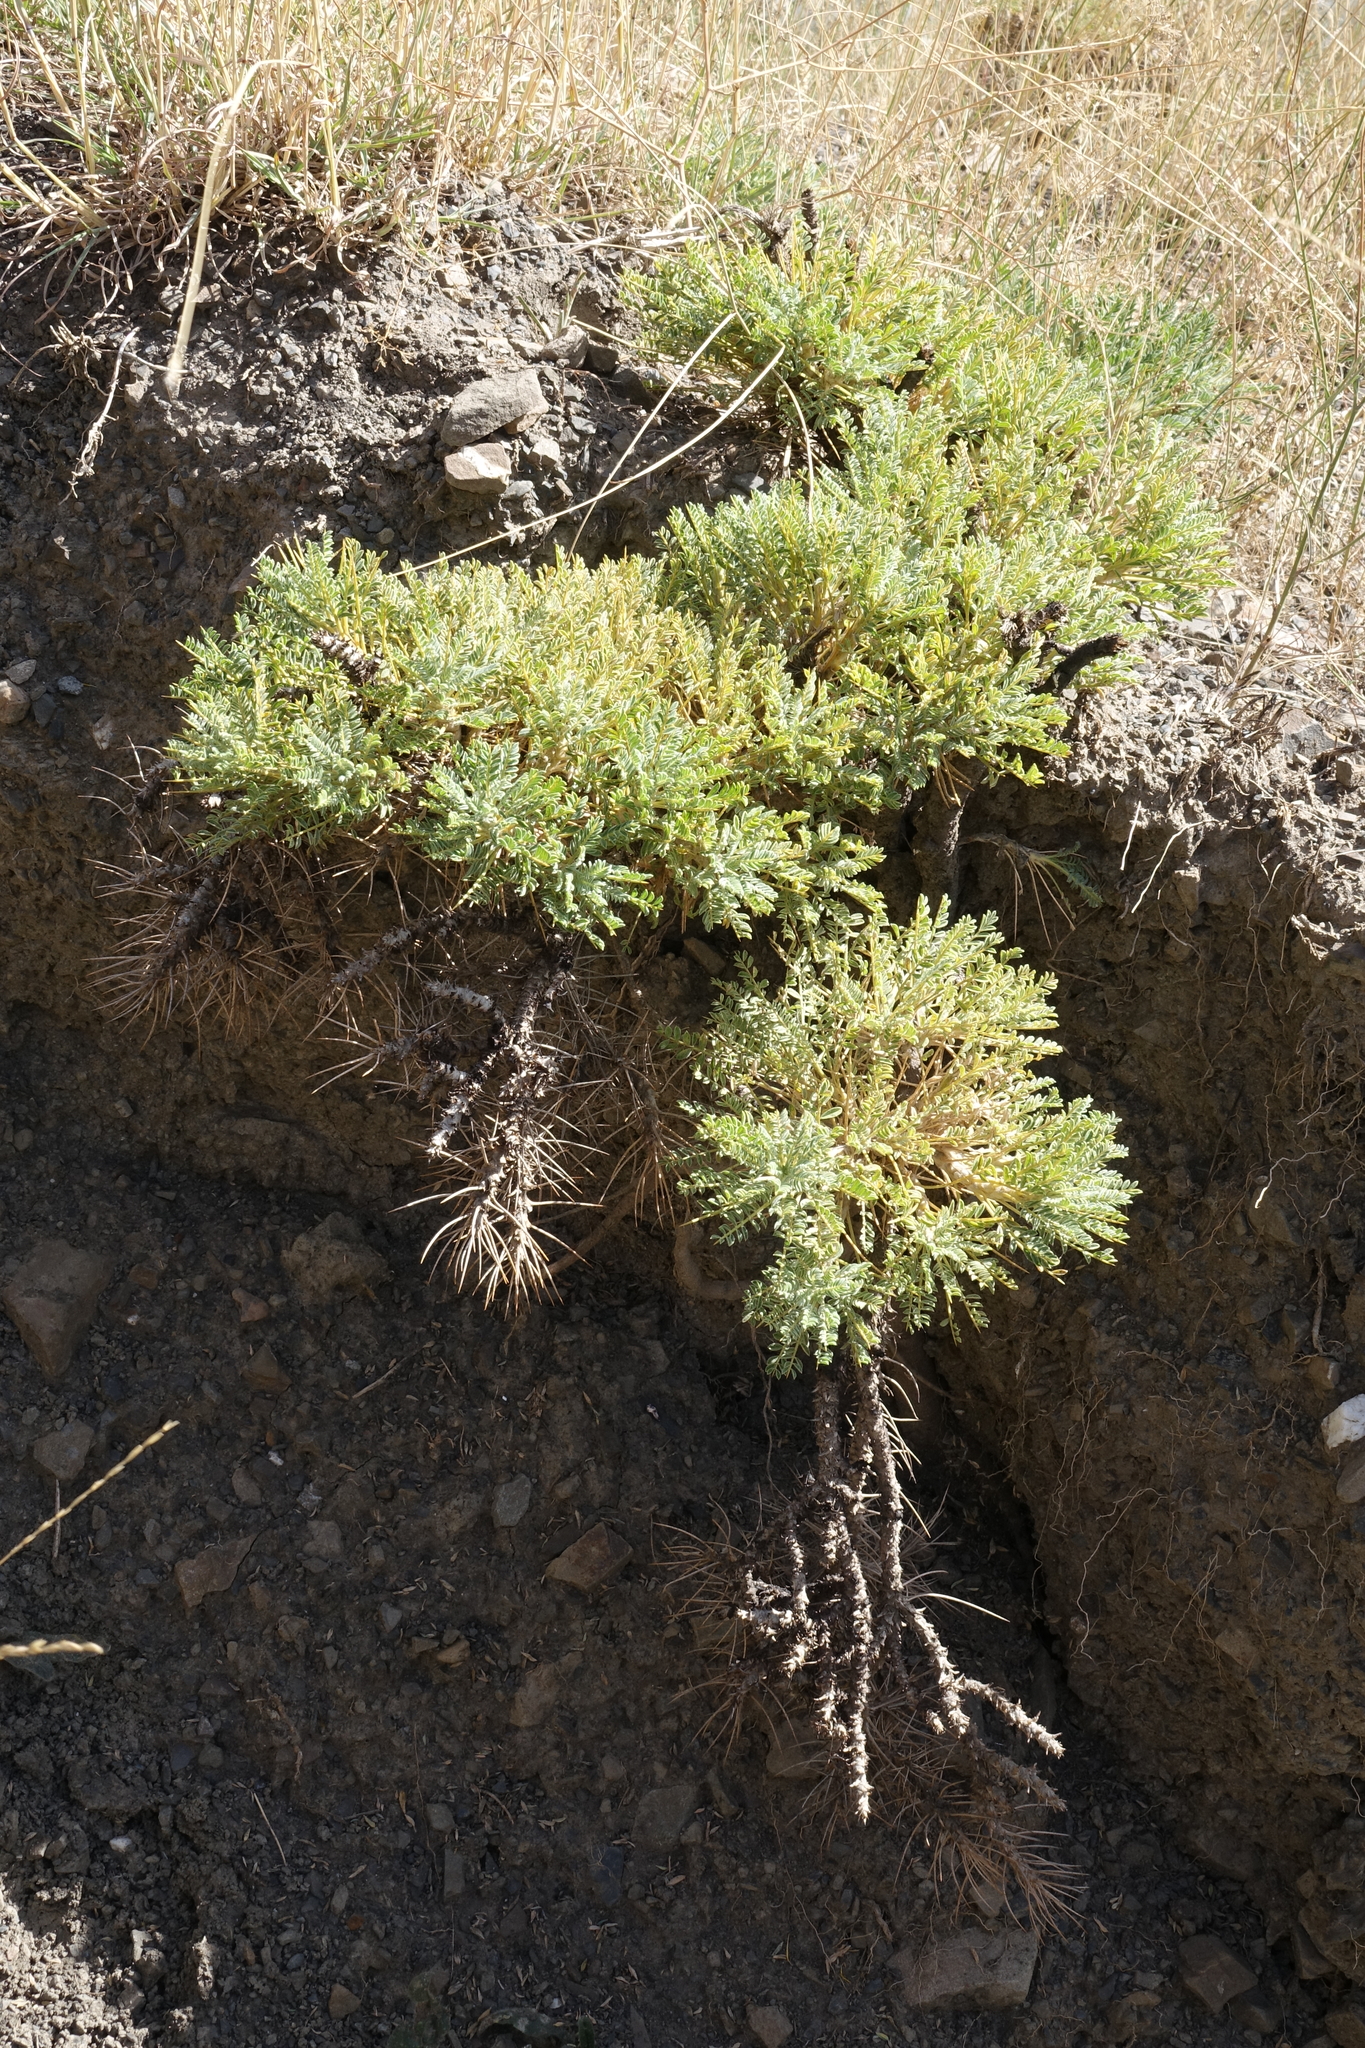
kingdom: Plantae
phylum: Tracheophyta
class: Magnoliopsida
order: Fabales
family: Fabaceae
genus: Astragalus
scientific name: Astragalus denudatus
